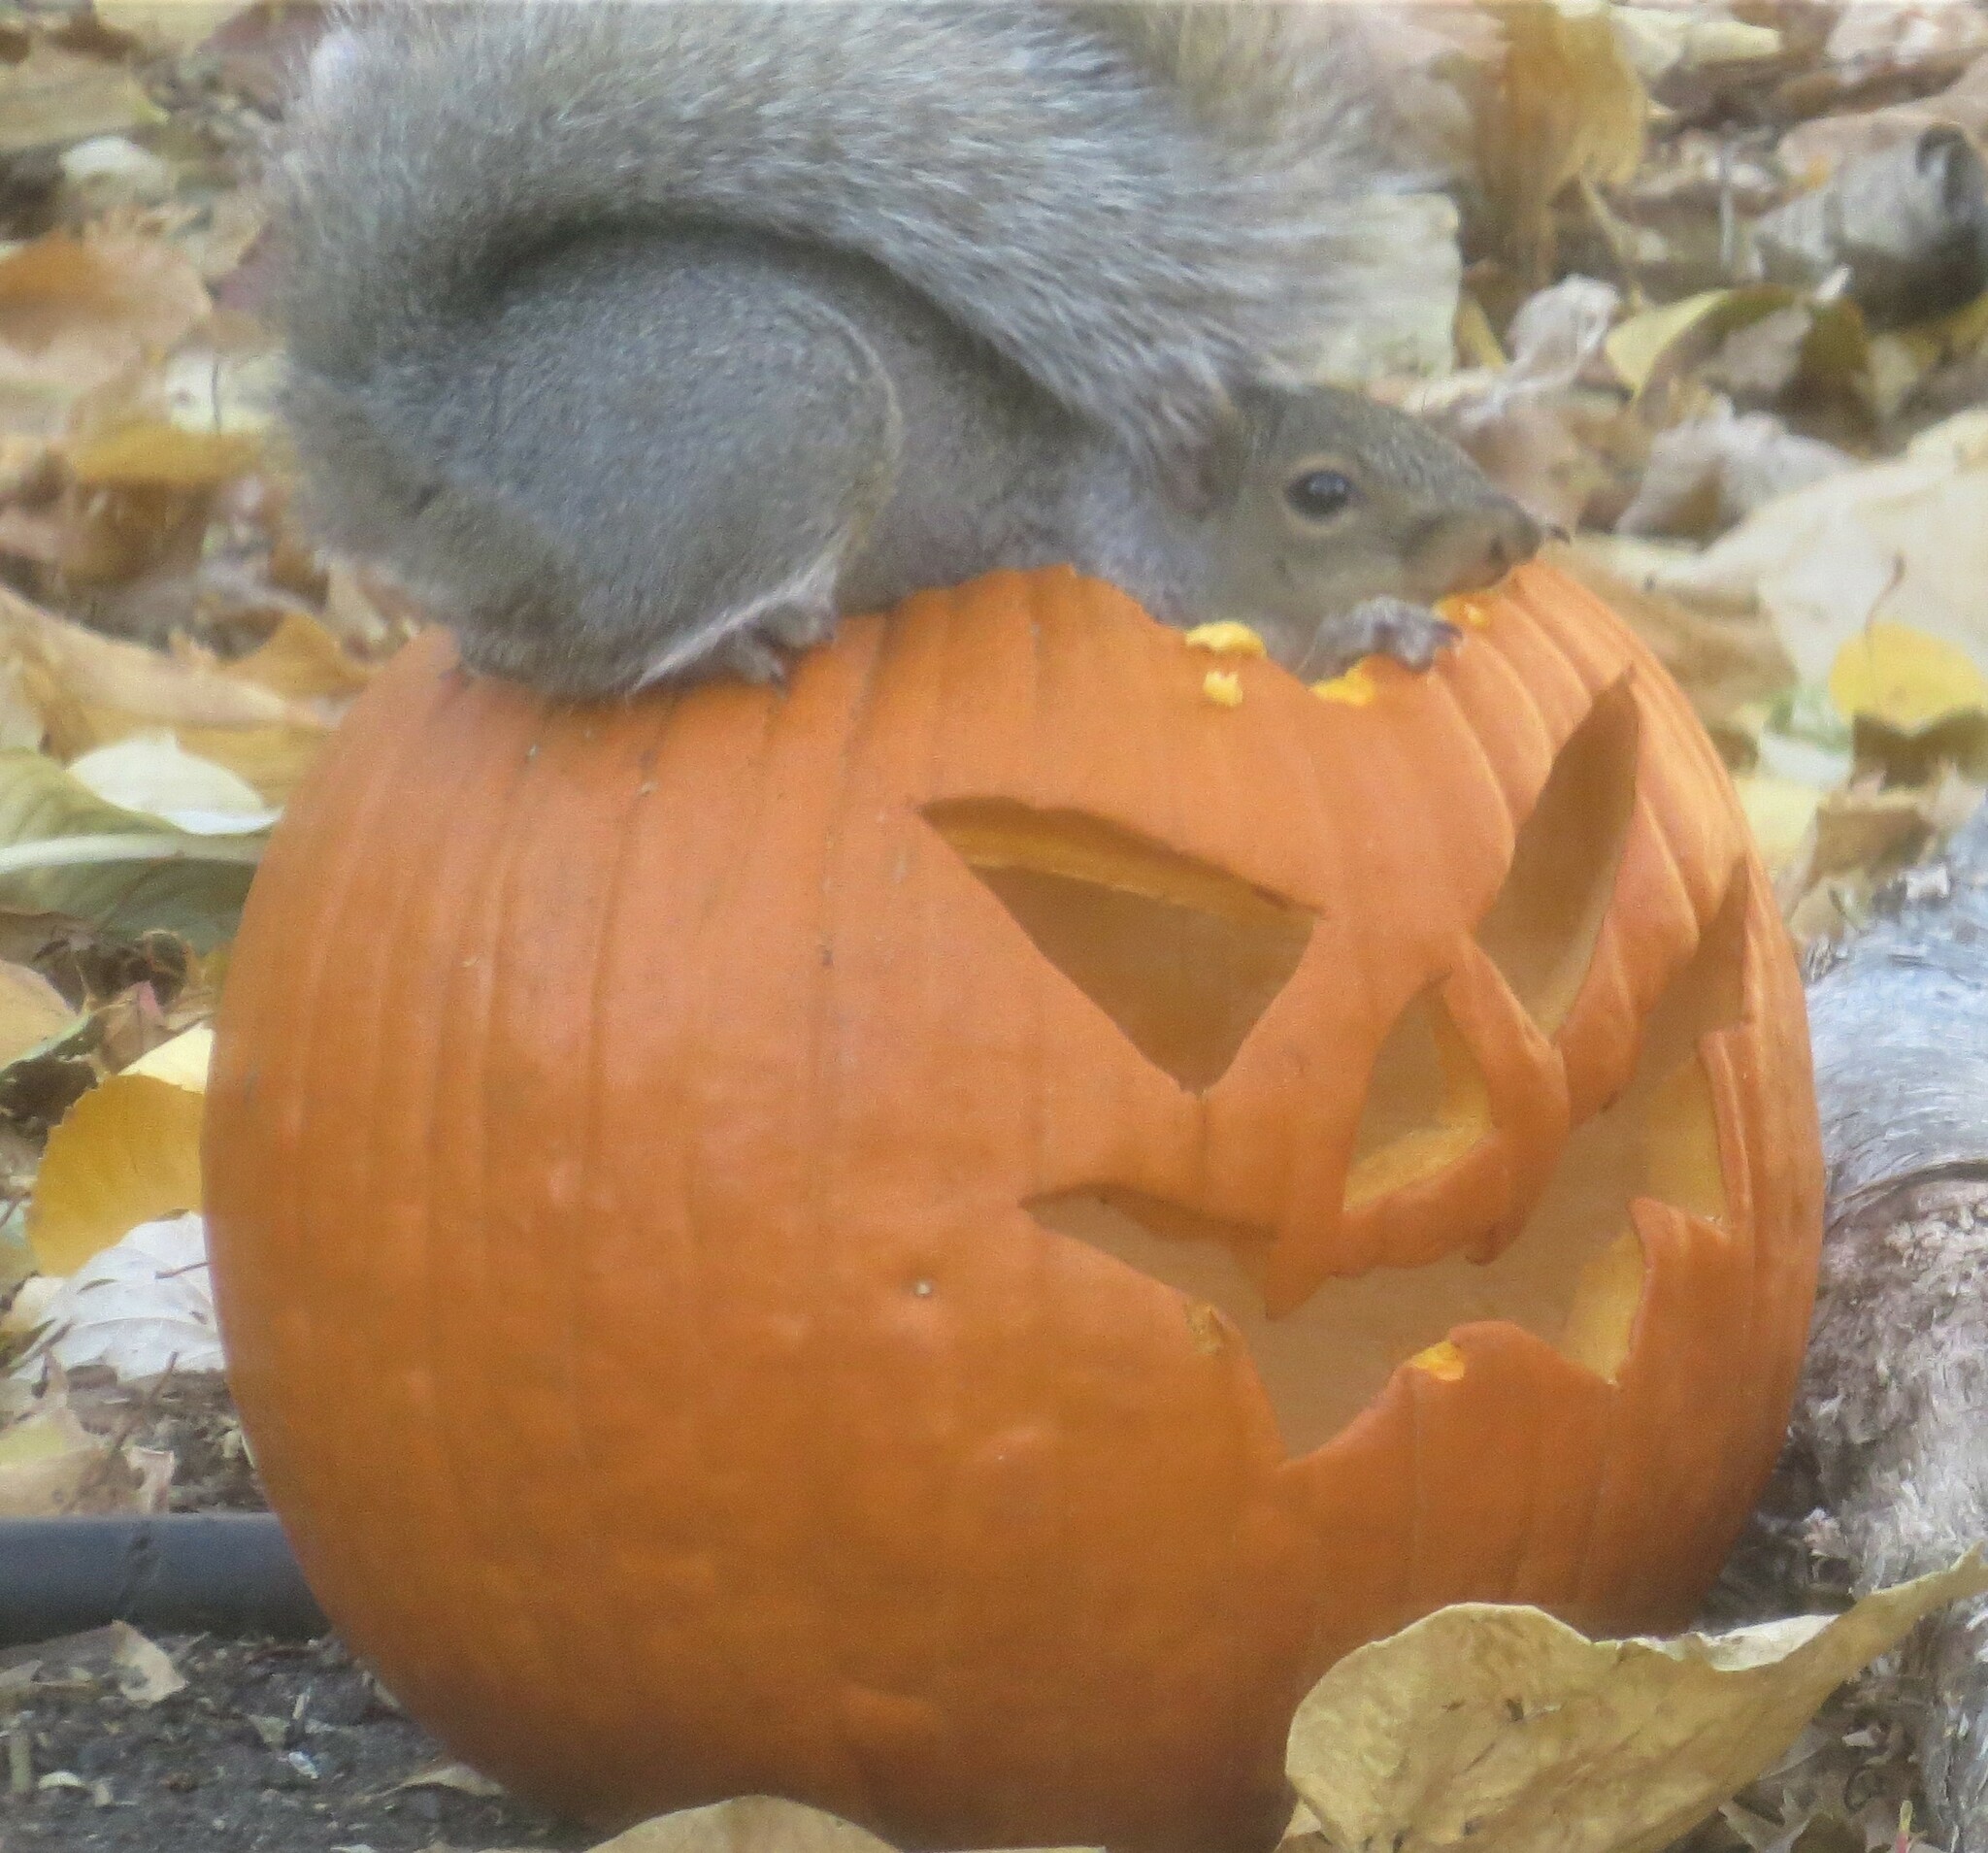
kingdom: Animalia
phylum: Chordata
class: Mammalia
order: Rodentia
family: Sciuridae
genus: Sciurus
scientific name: Sciurus carolinensis
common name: Eastern gray squirrel
